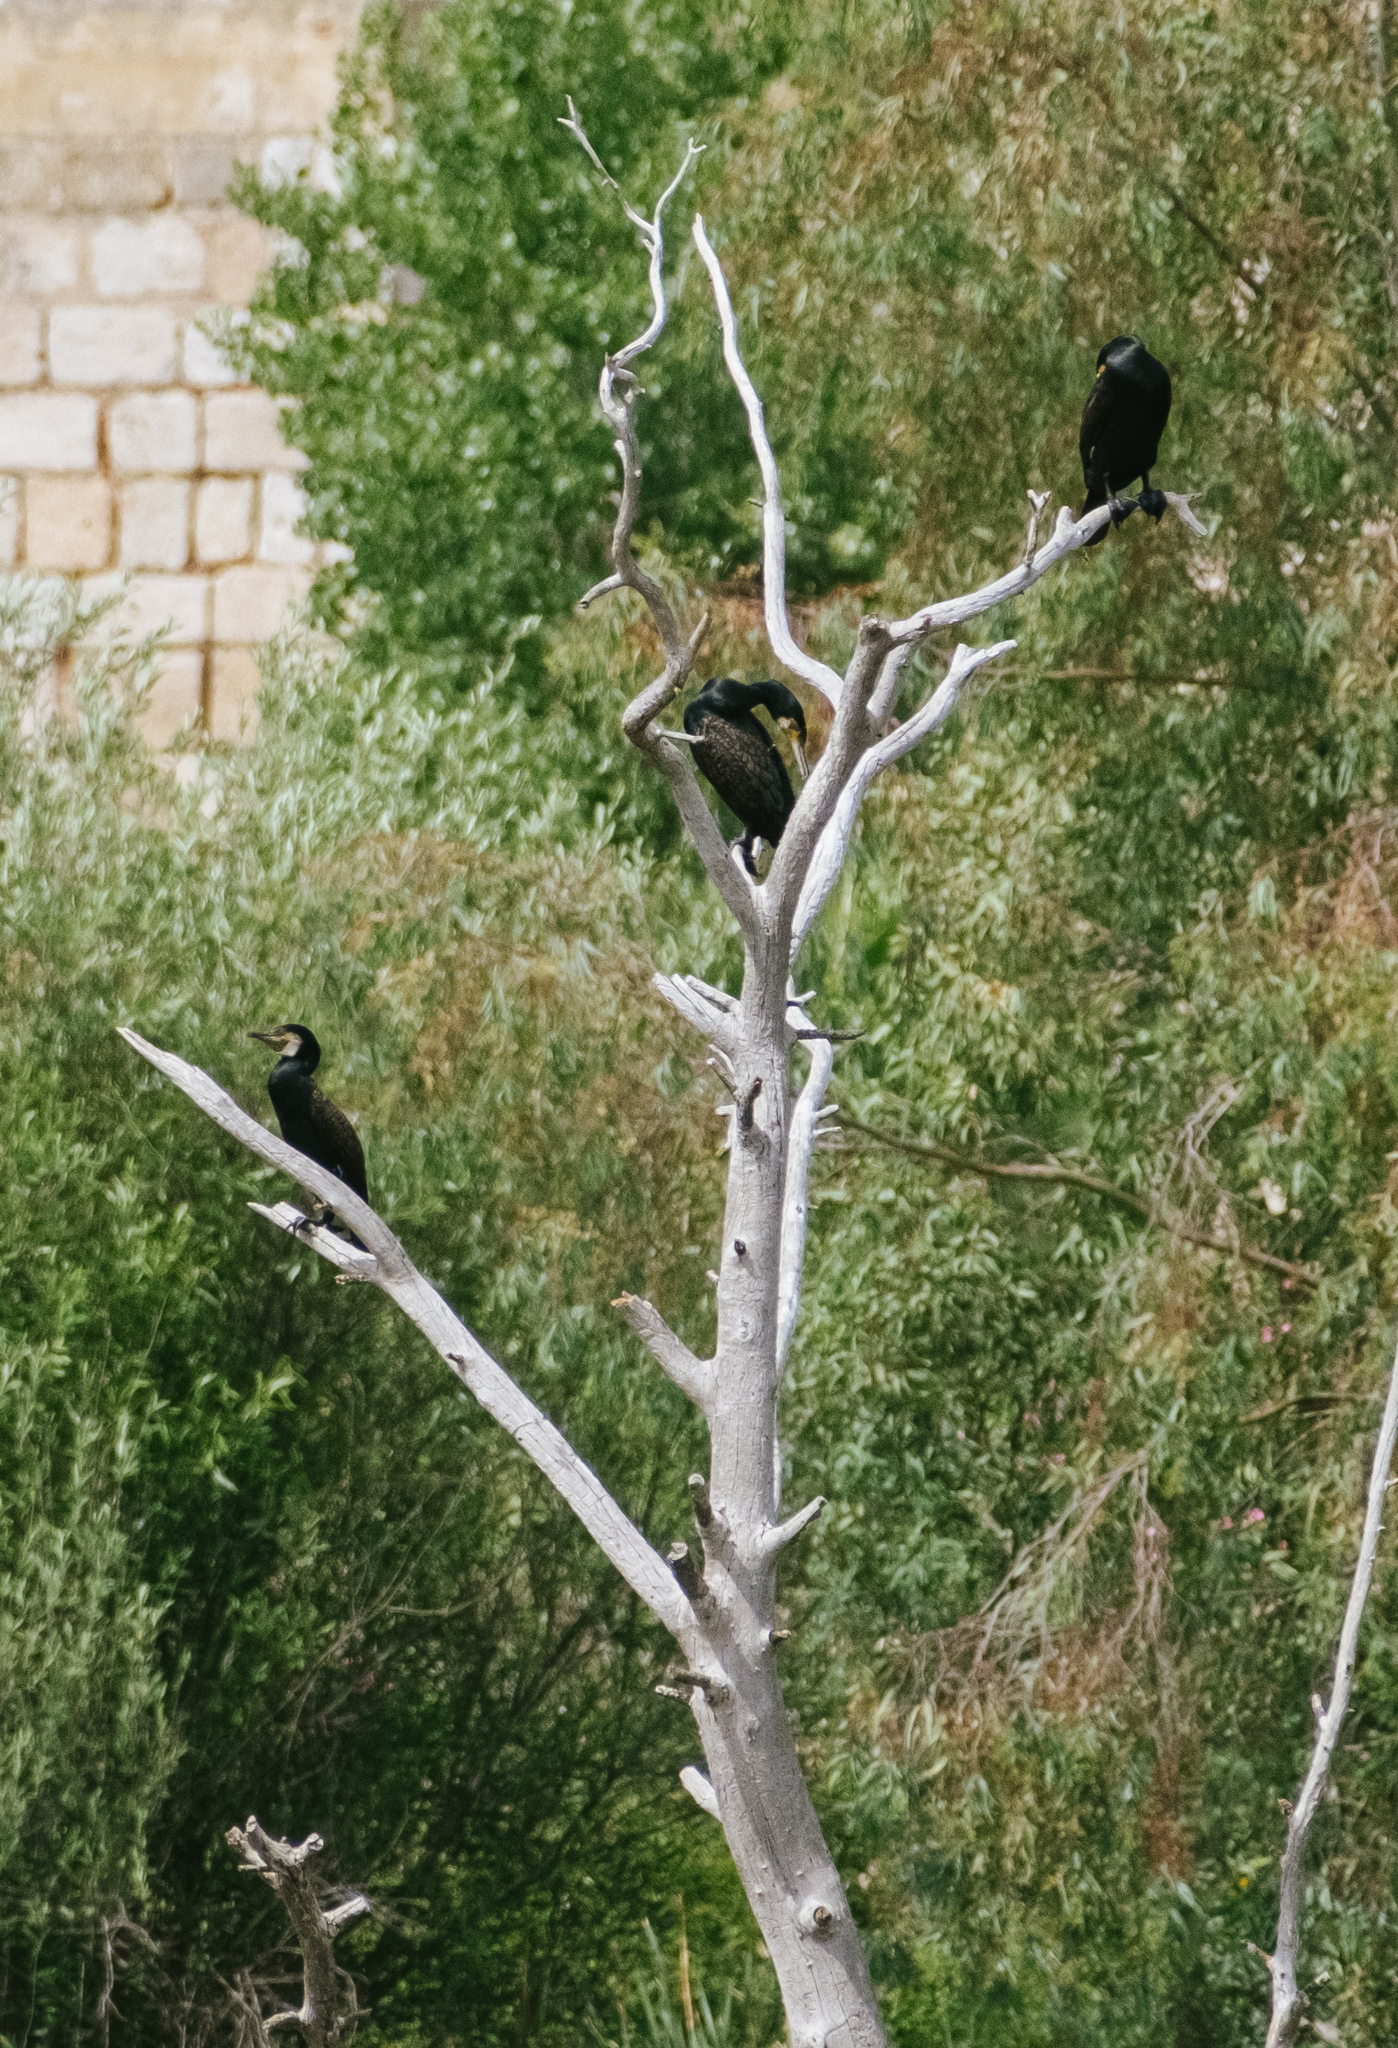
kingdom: Animalia
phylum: Chordata
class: Aves
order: Suliformes
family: Phalacrocoracidae
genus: Phalacrocorax
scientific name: Phalacrocorax carbo
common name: Great cormorant
